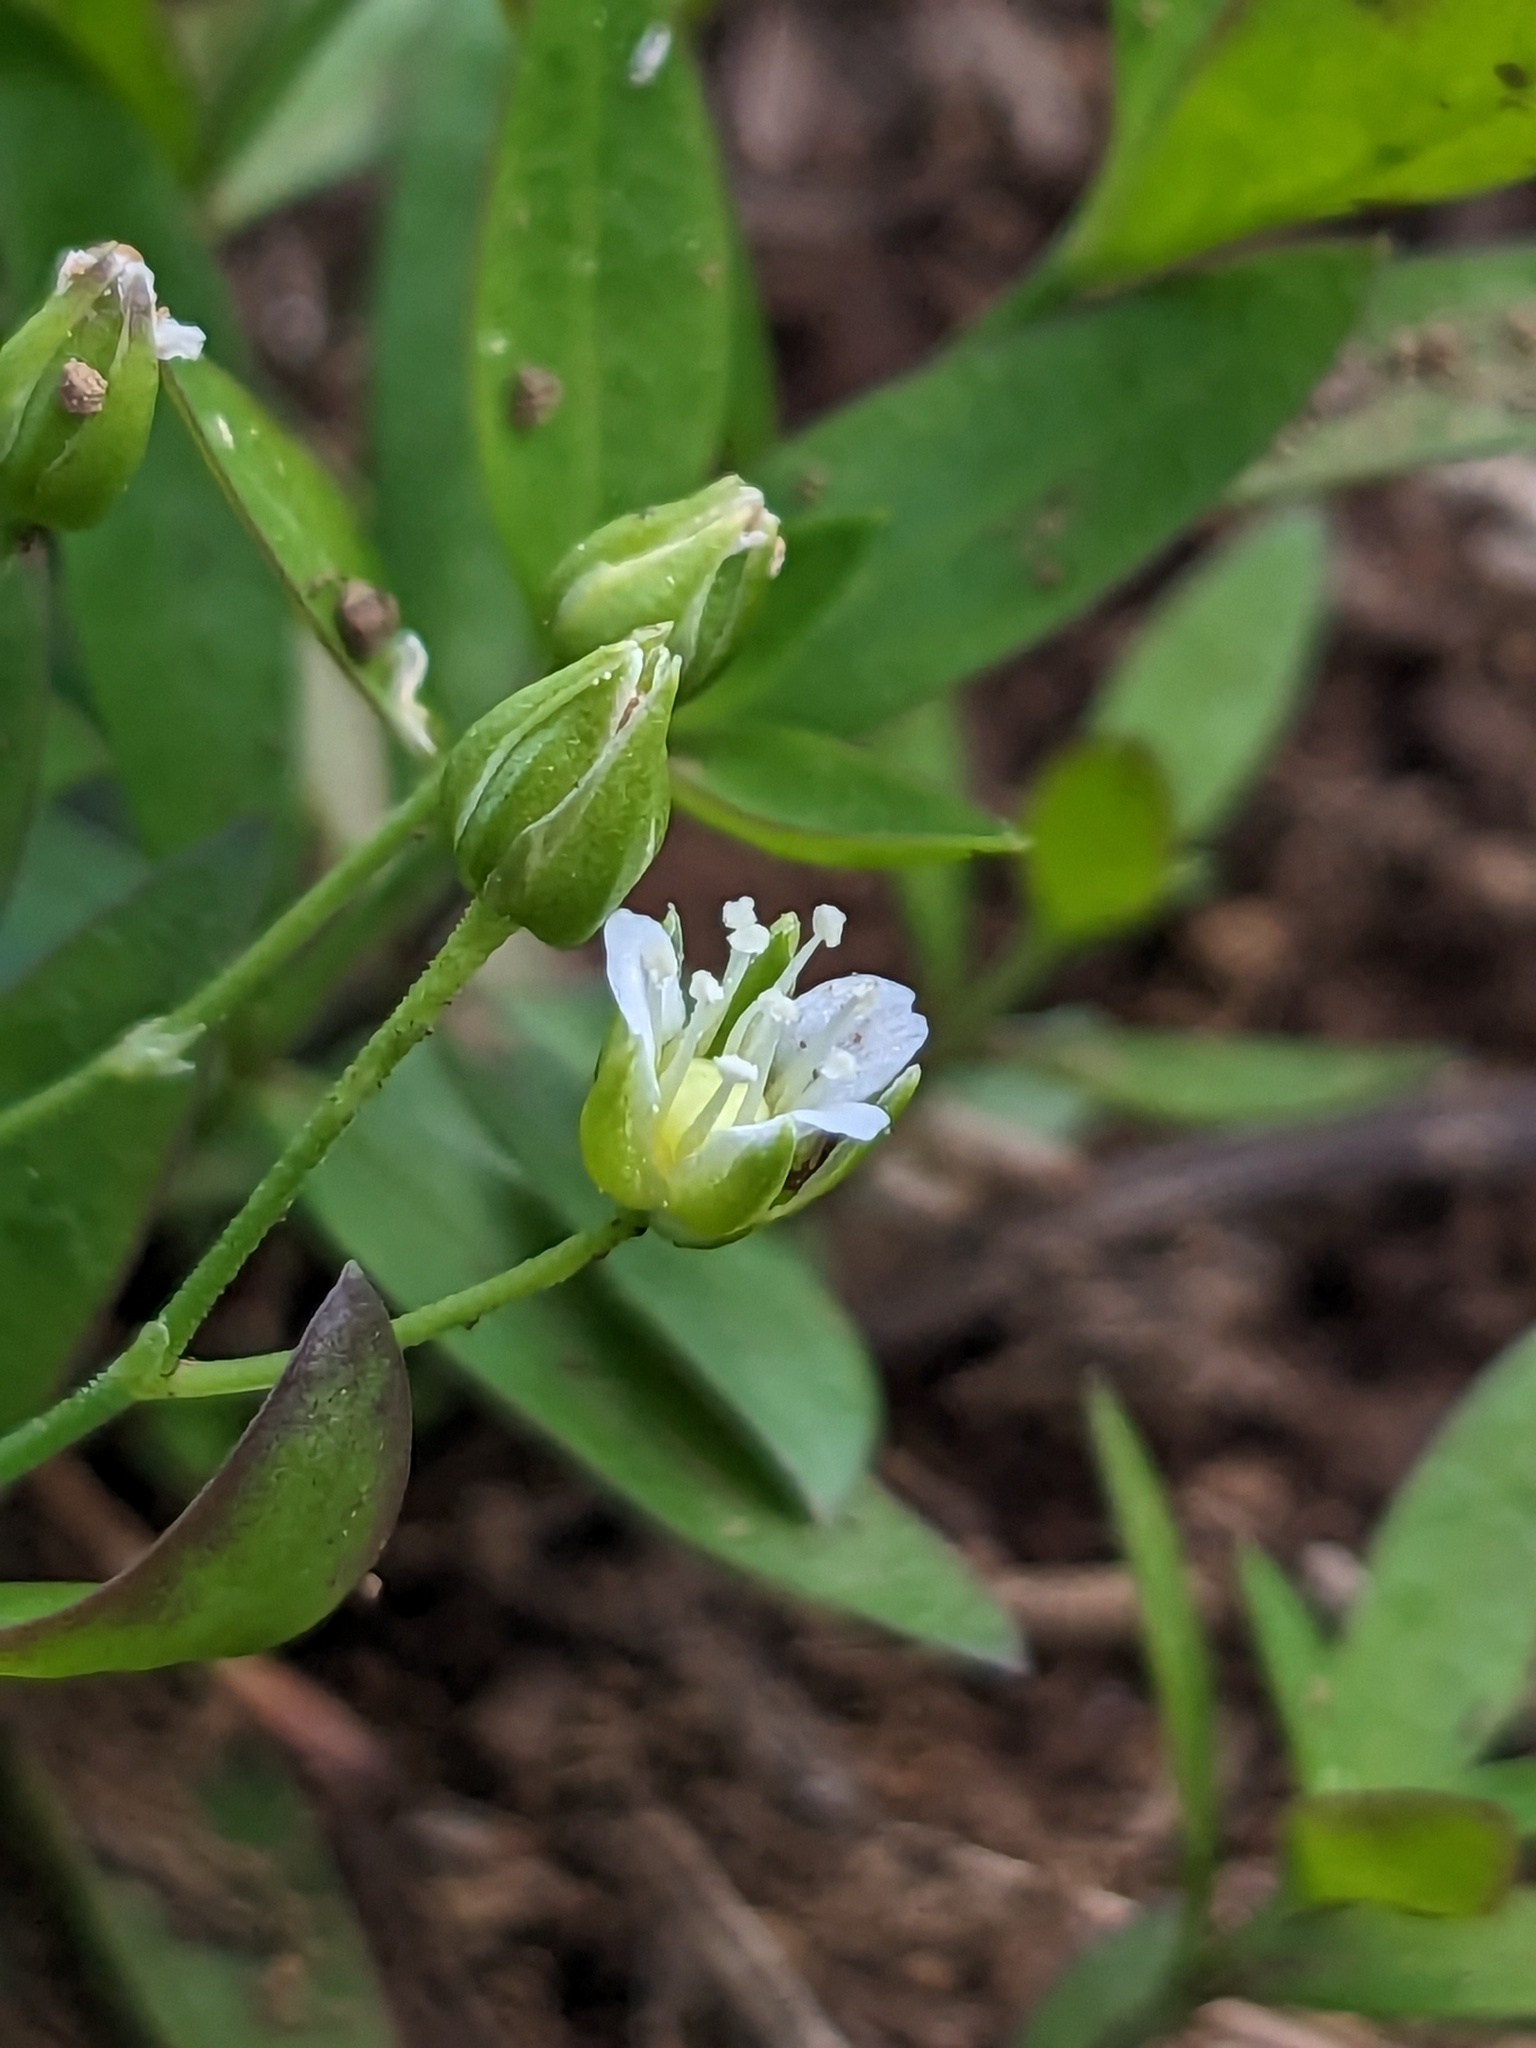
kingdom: Plantae
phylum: Tracheophyta
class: Magnoliopsida
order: Caryophyllales
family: Caryophyllaceae
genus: Moehringia
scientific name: Moehringia macrophylla
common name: Big-leaf sandwort
